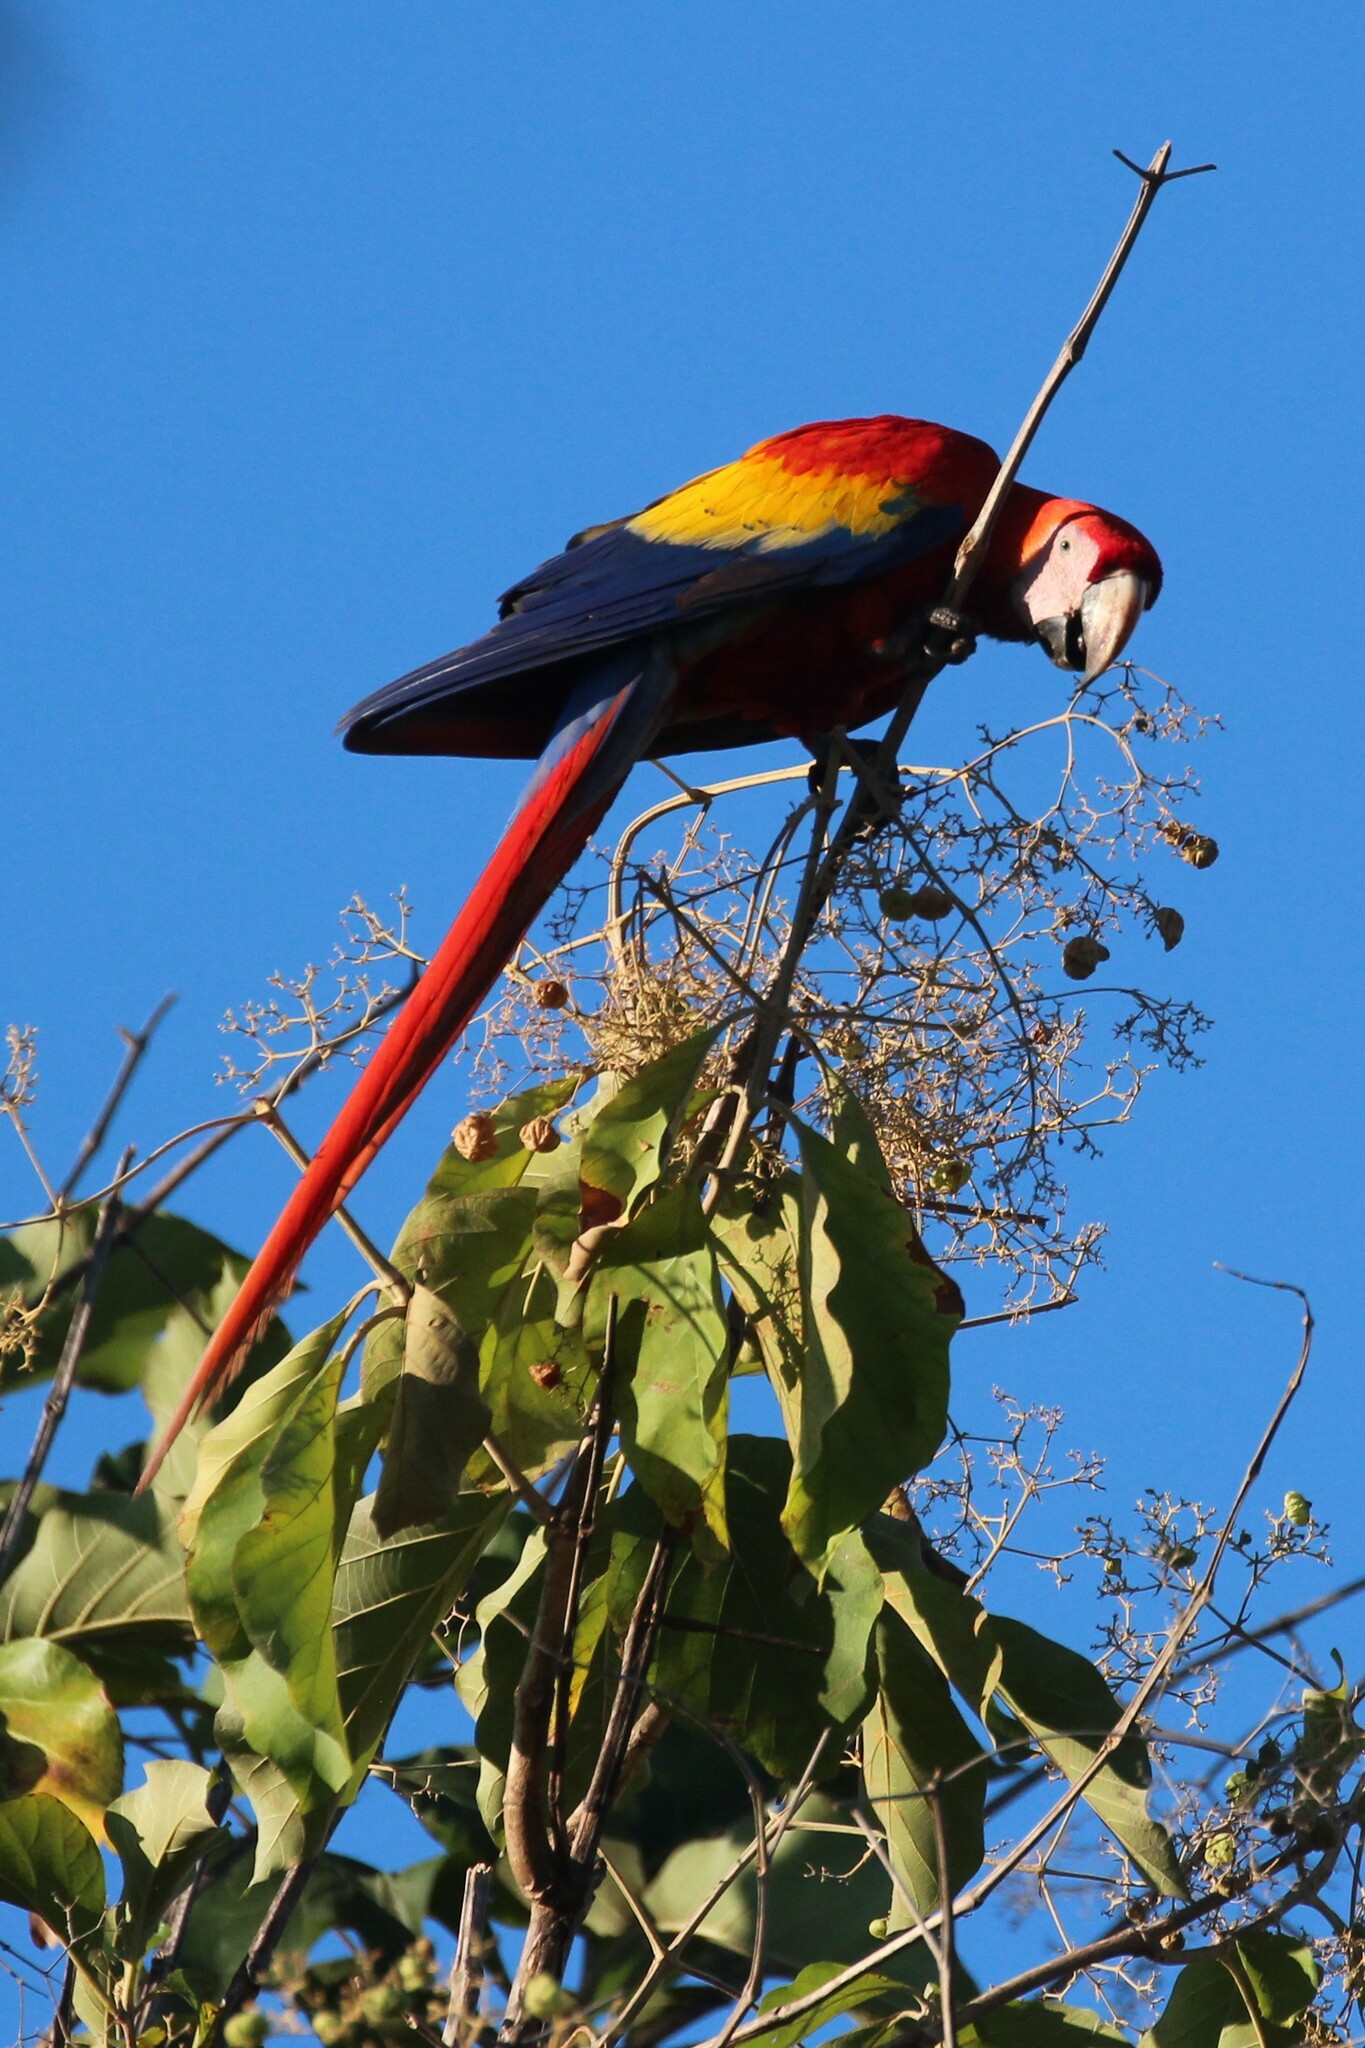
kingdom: Animalia
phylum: Chordata
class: Aves
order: Psittaciformes
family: Psittacidae
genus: Ara
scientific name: Ara macao
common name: Scarlet macaw
